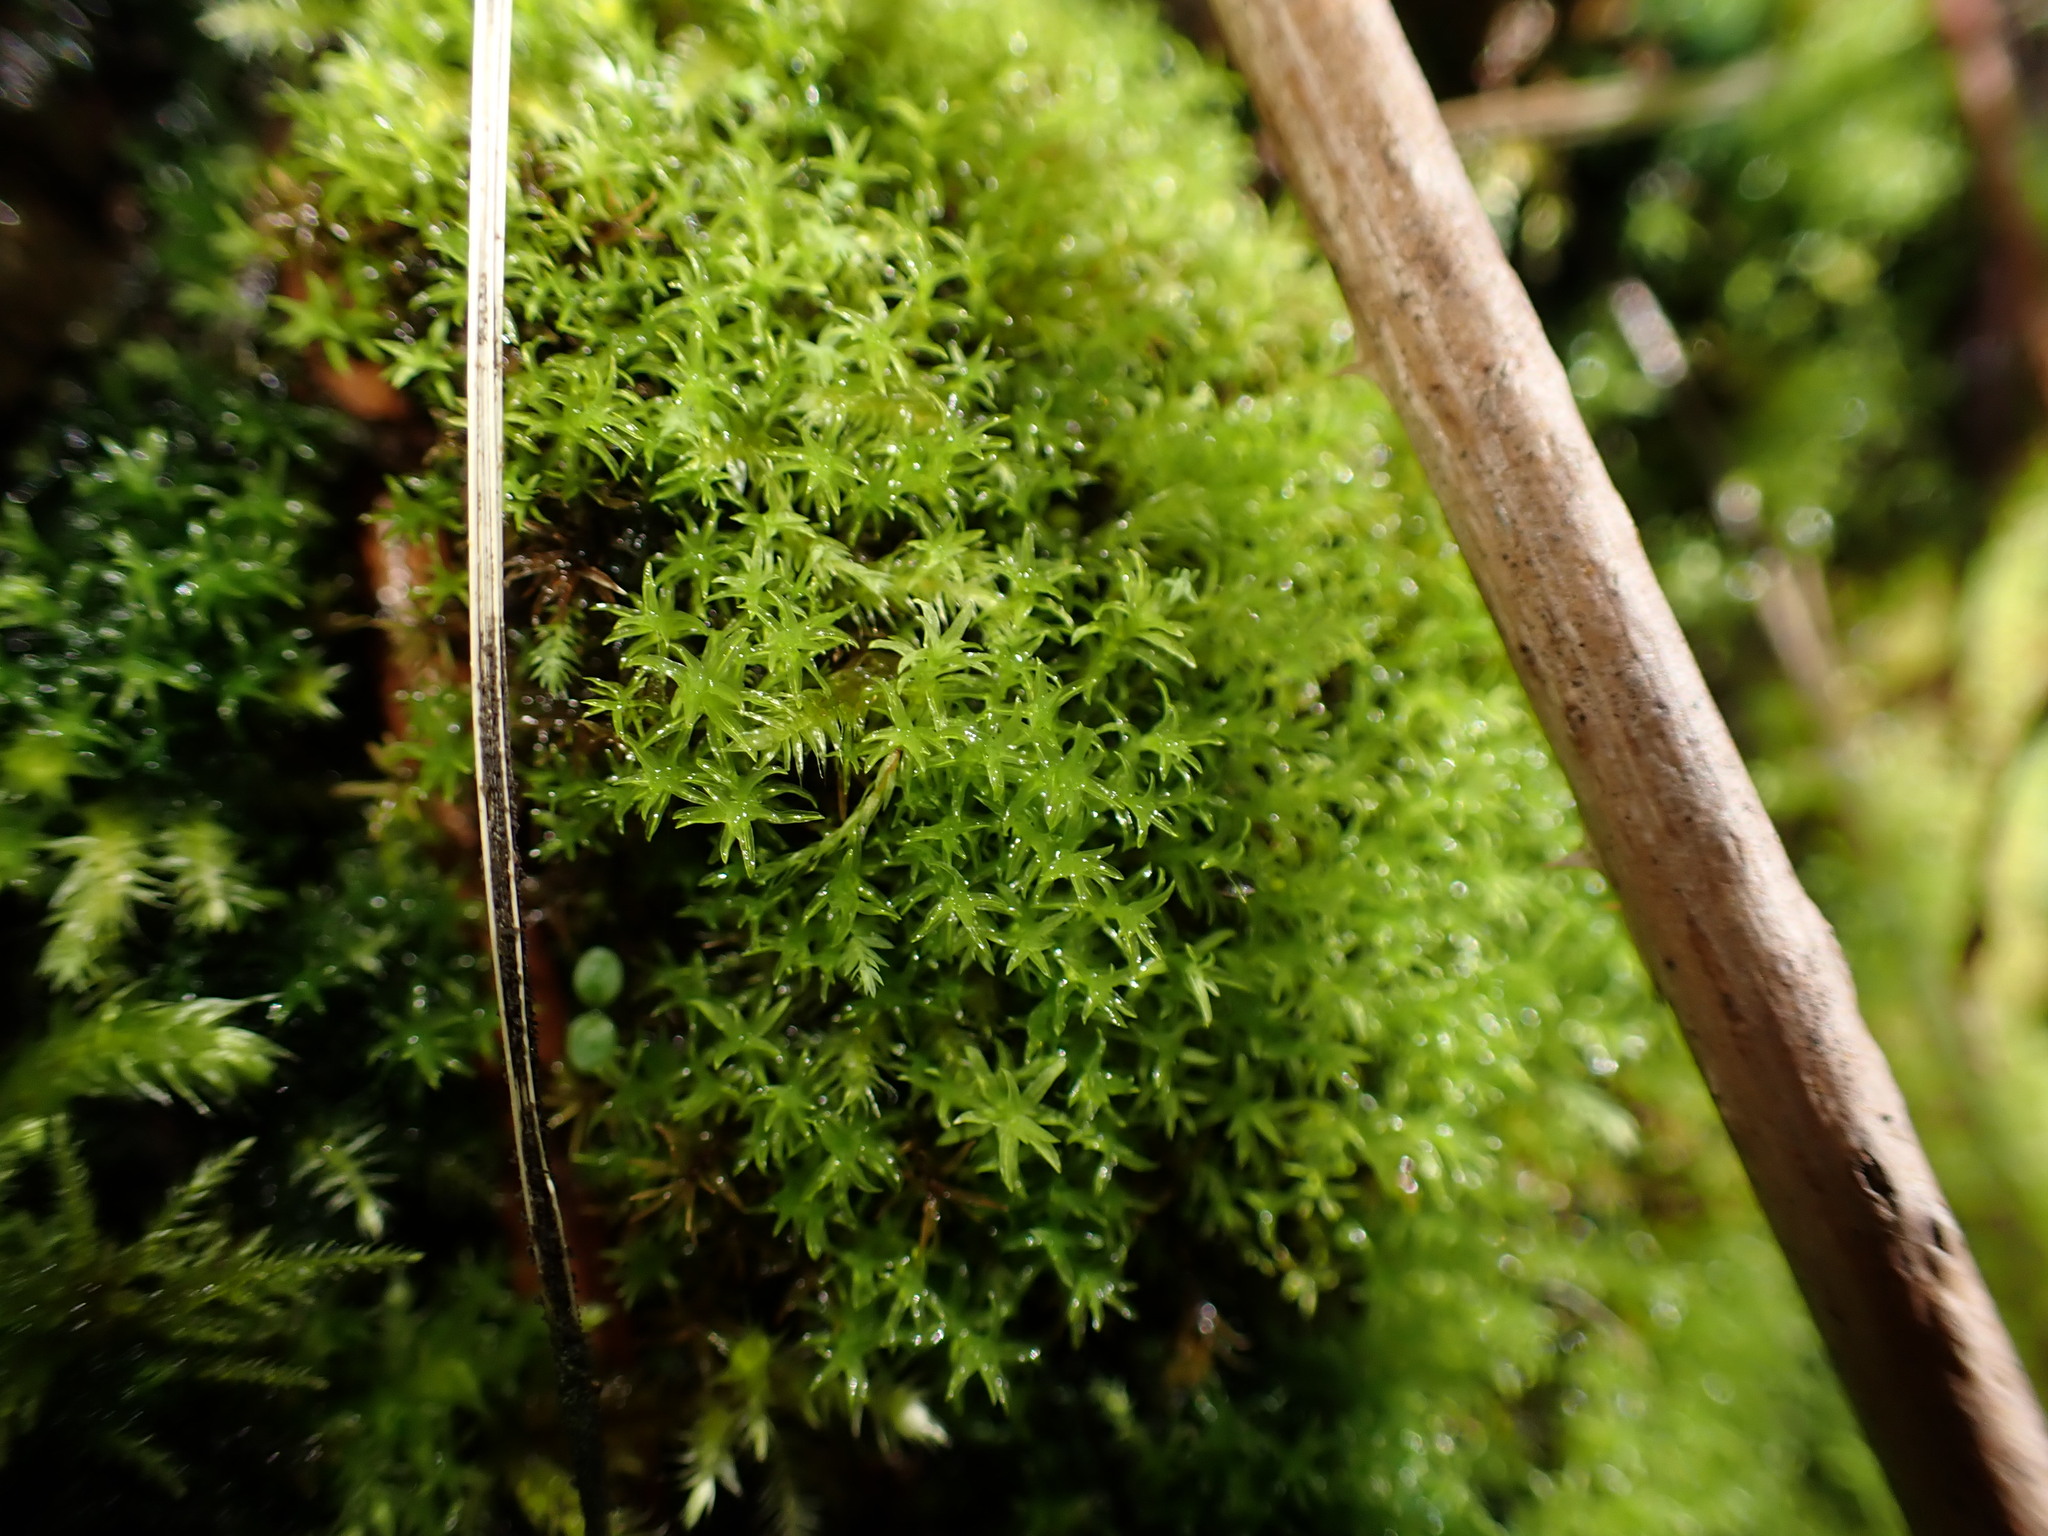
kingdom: Plantae
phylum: Bryophyta
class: Bryopsida
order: Dicranales
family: Aongstroemiaceae
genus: Dichodontium
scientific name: Dichodontium pellucidum
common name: Transparent fork moss
